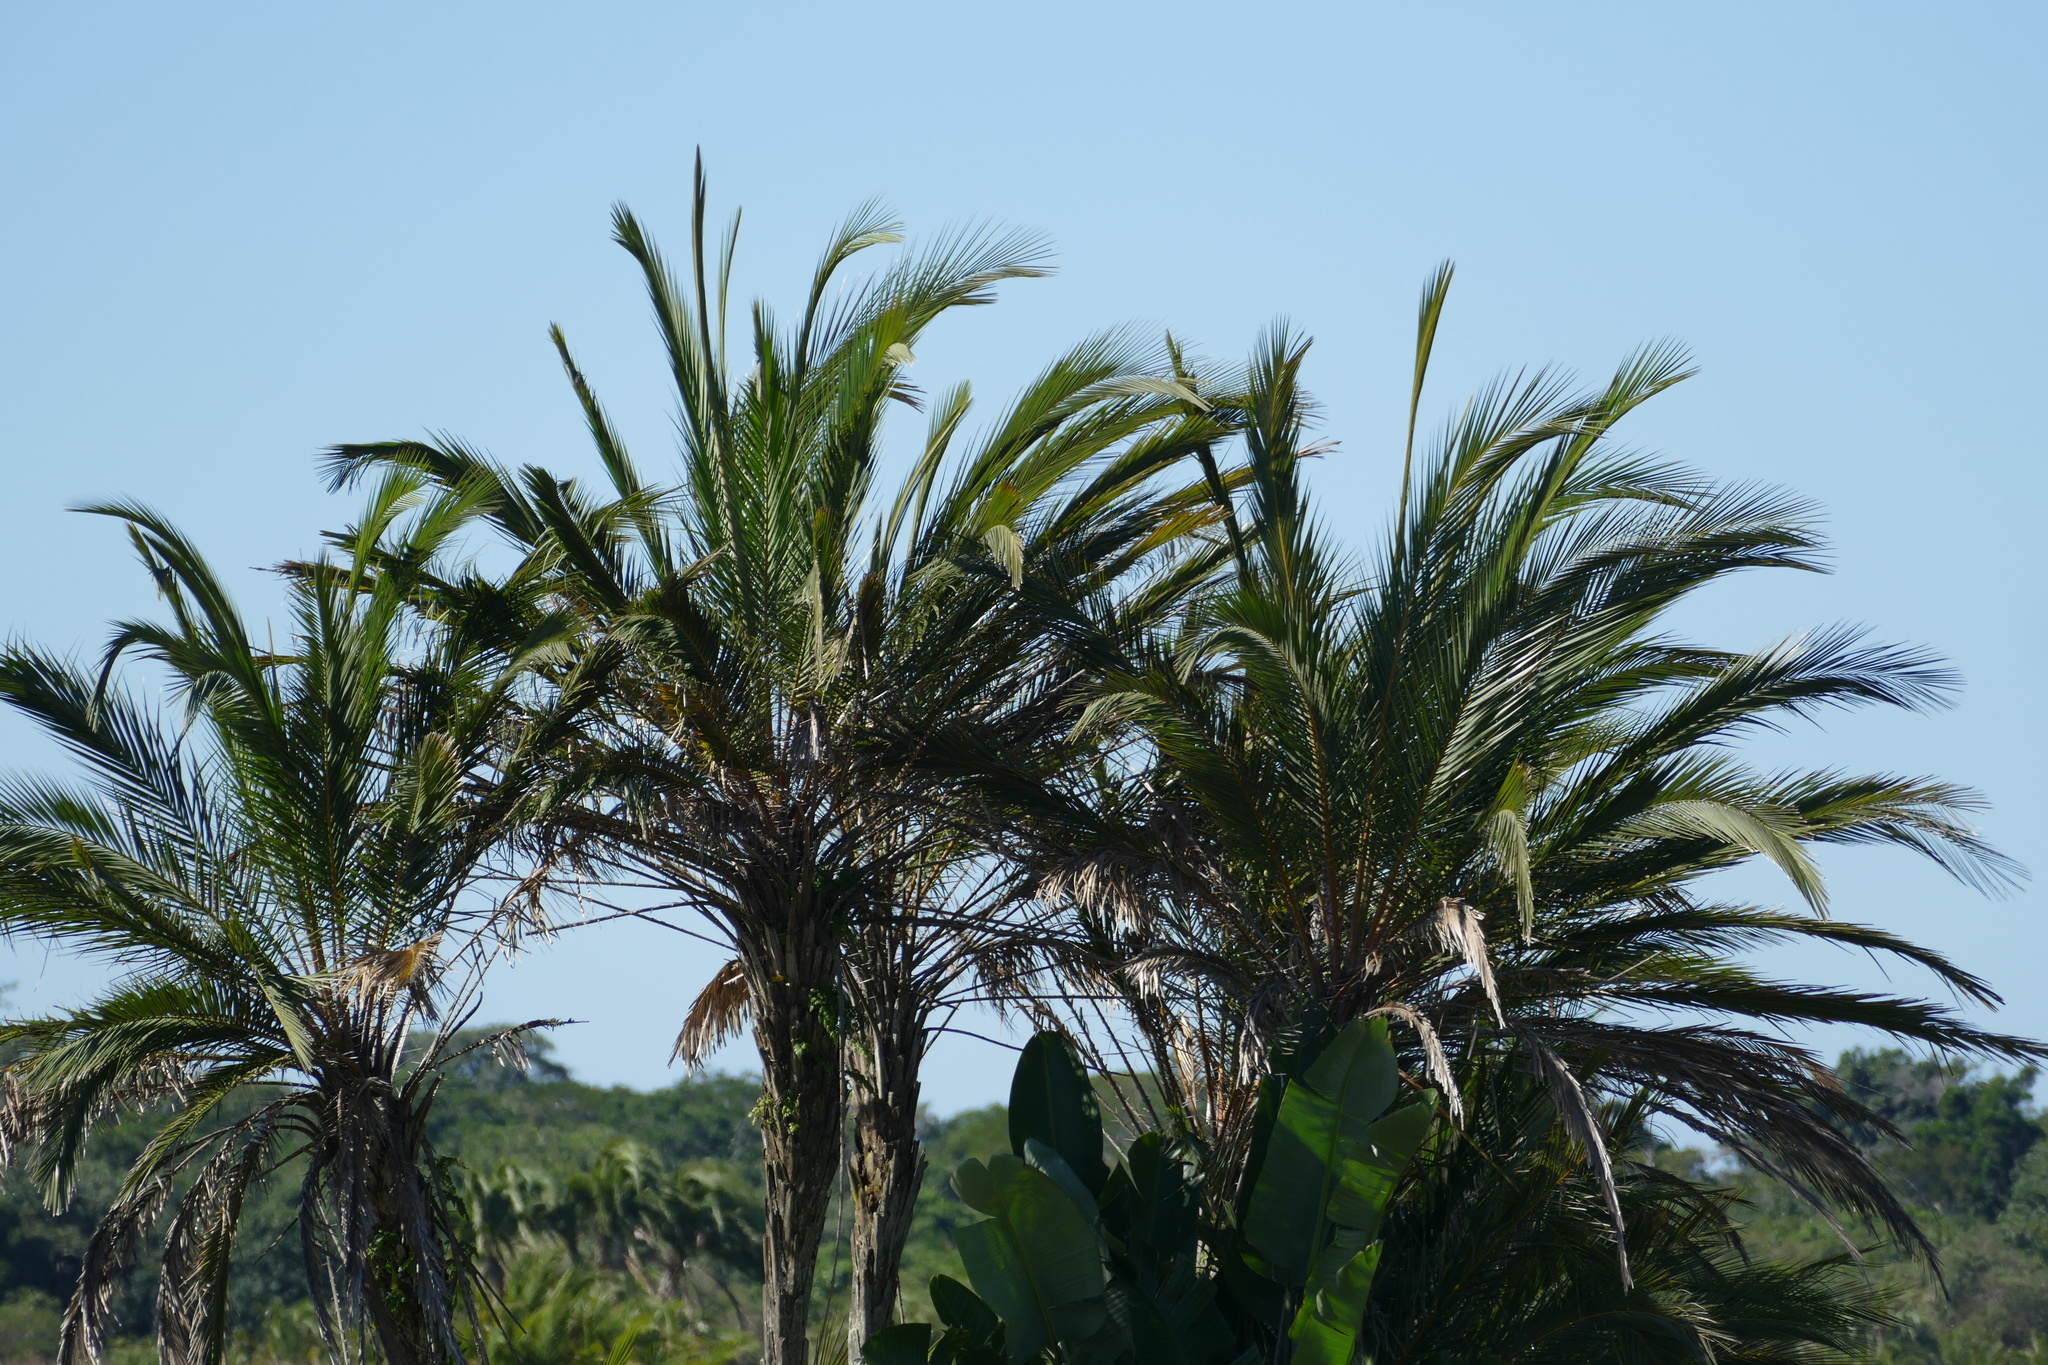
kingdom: Plantae
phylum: Tracheophyta
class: Liliopsida
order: Arecales
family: Arecaceae
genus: Phoenix
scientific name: Phoenix reclinata
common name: Senegal date palm
